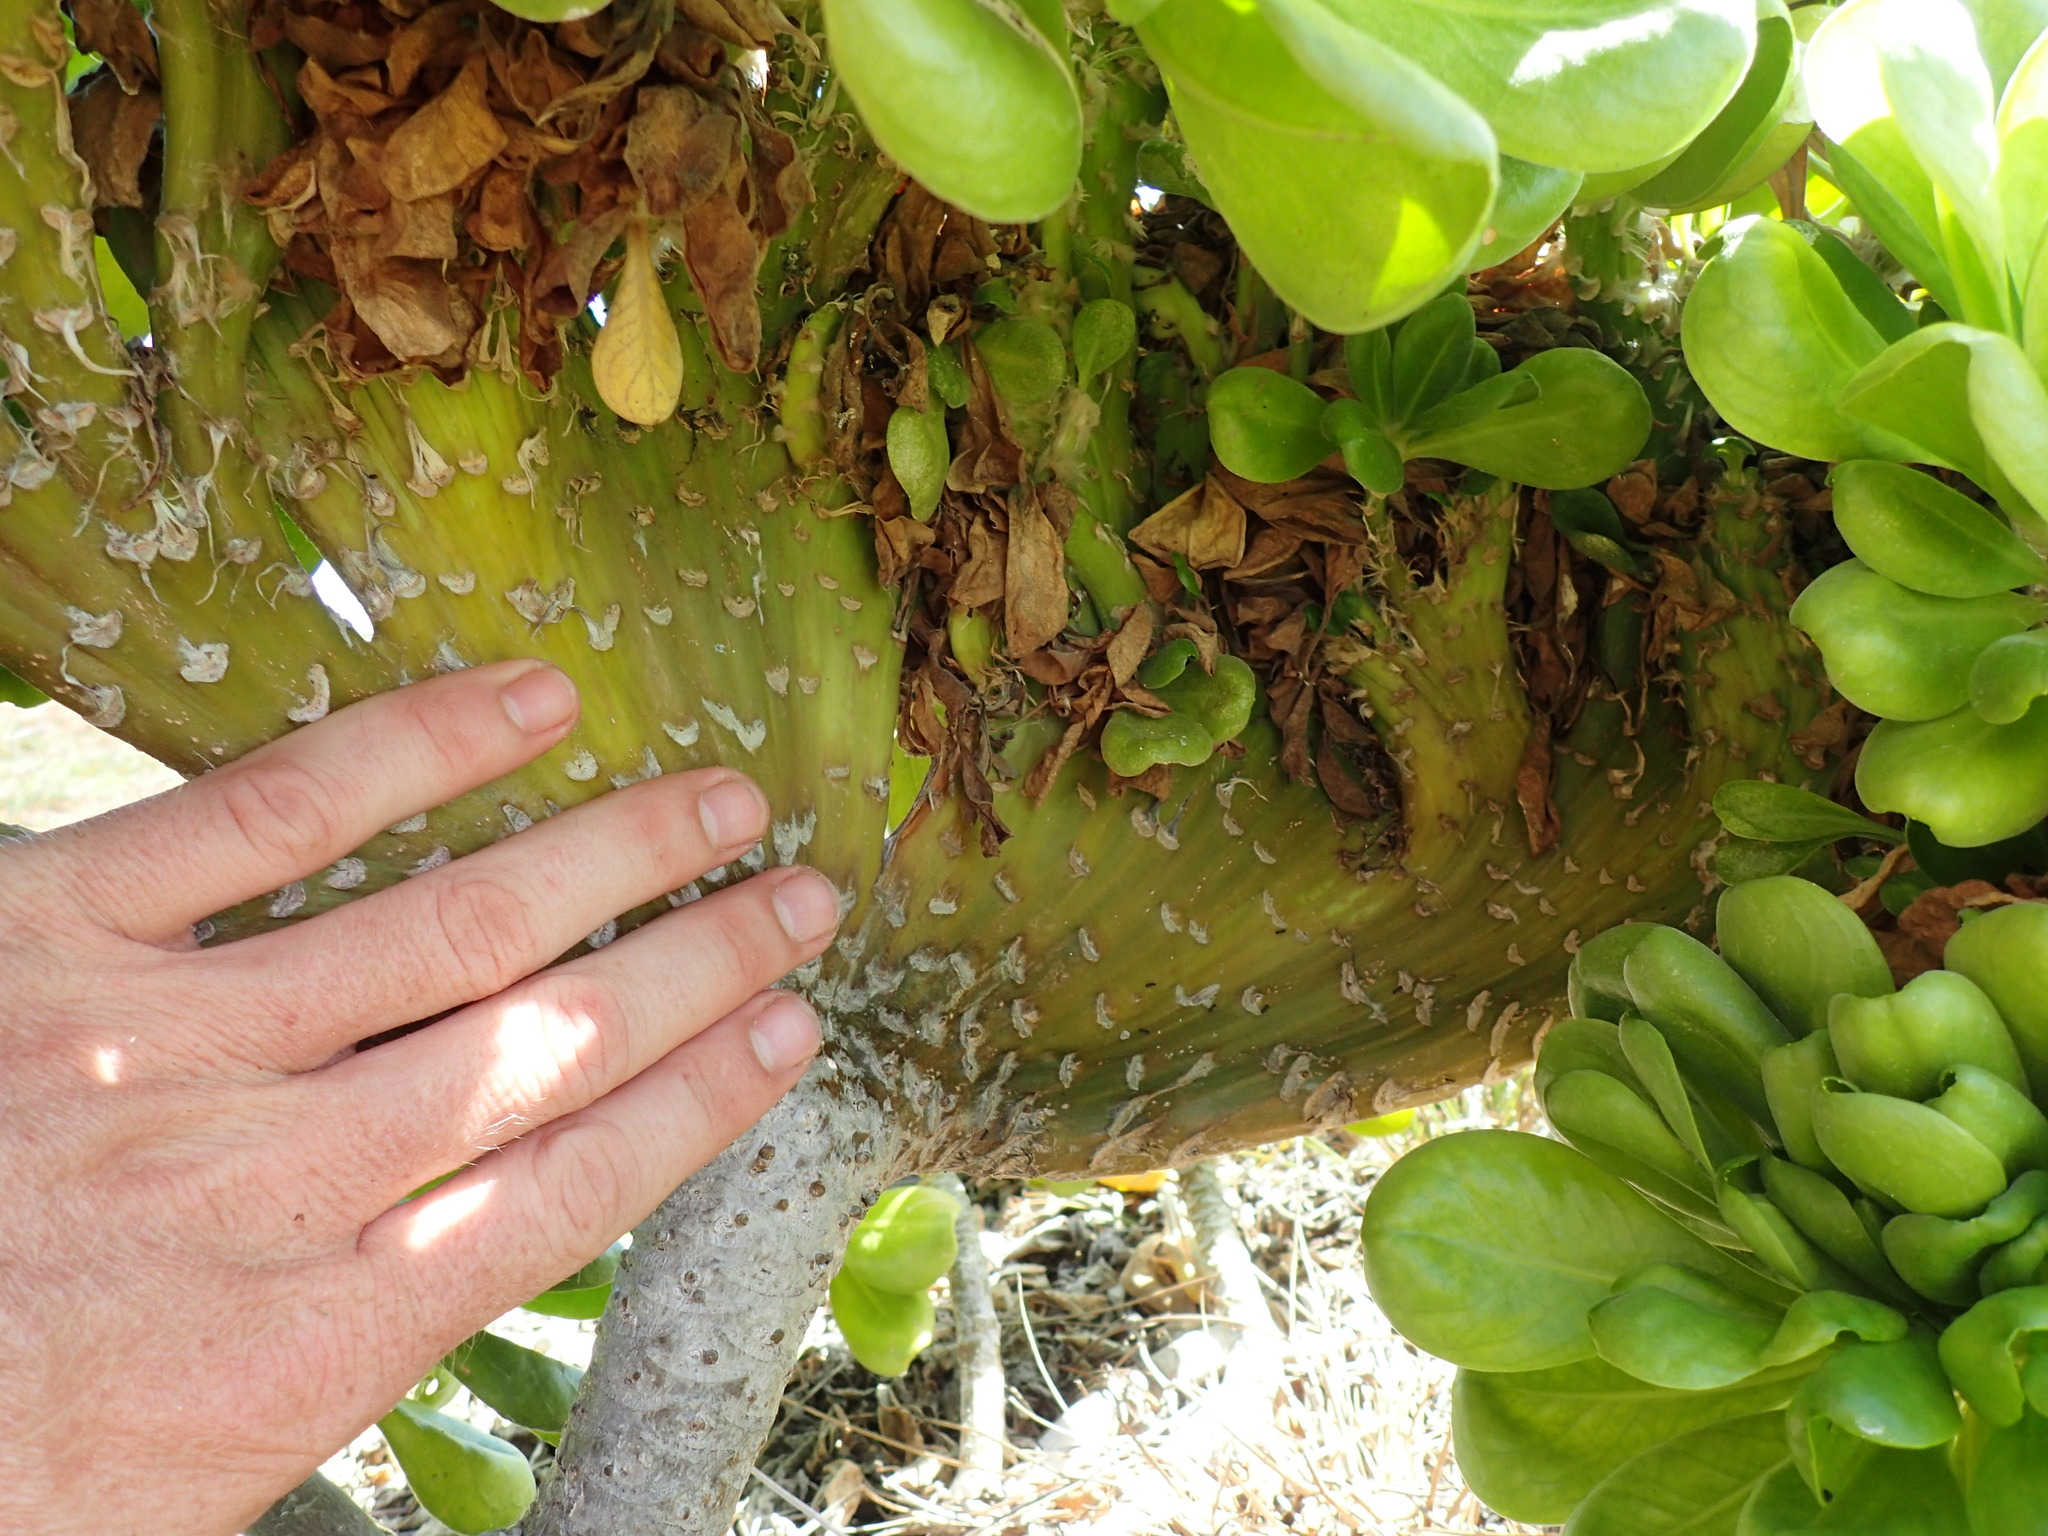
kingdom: Plantae
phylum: Tracheophyta
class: Magnoliopsida
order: Asterales
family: Goodeniaceae
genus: Scaevola
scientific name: Scaevola taccada
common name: Sea lettucetree
